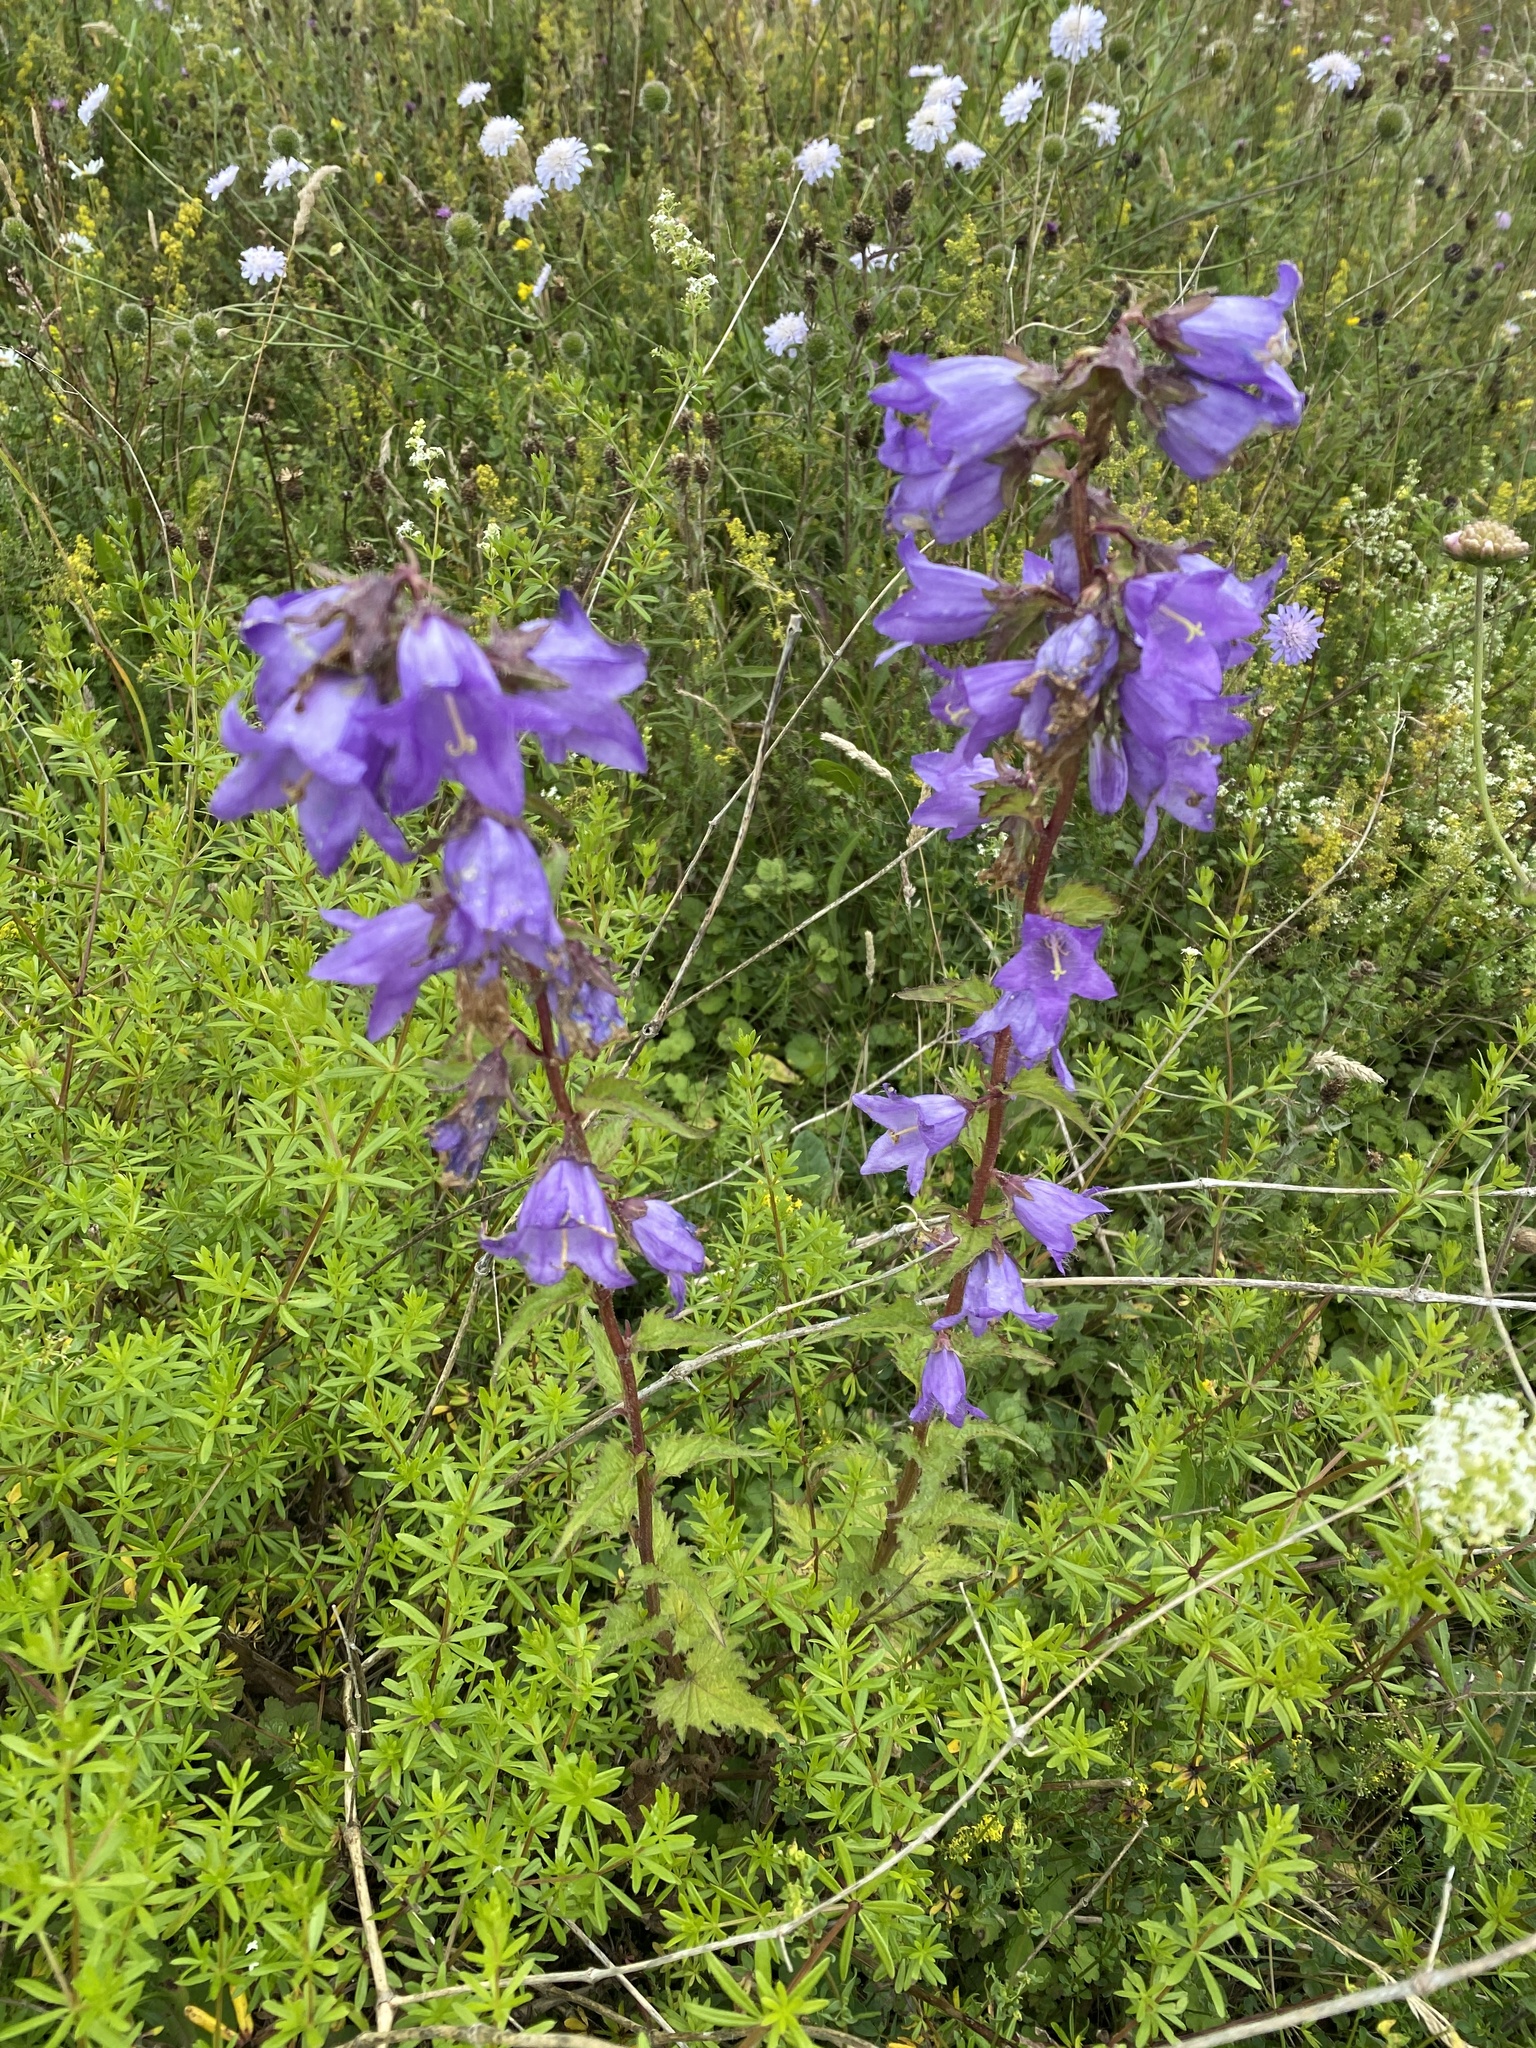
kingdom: Plantae
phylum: Tracheophyta
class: Magnoliopsida
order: Asterales
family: Campanulaceae
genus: Campanula
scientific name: Campanula trachelium
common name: Nettle-leaved bellflower
